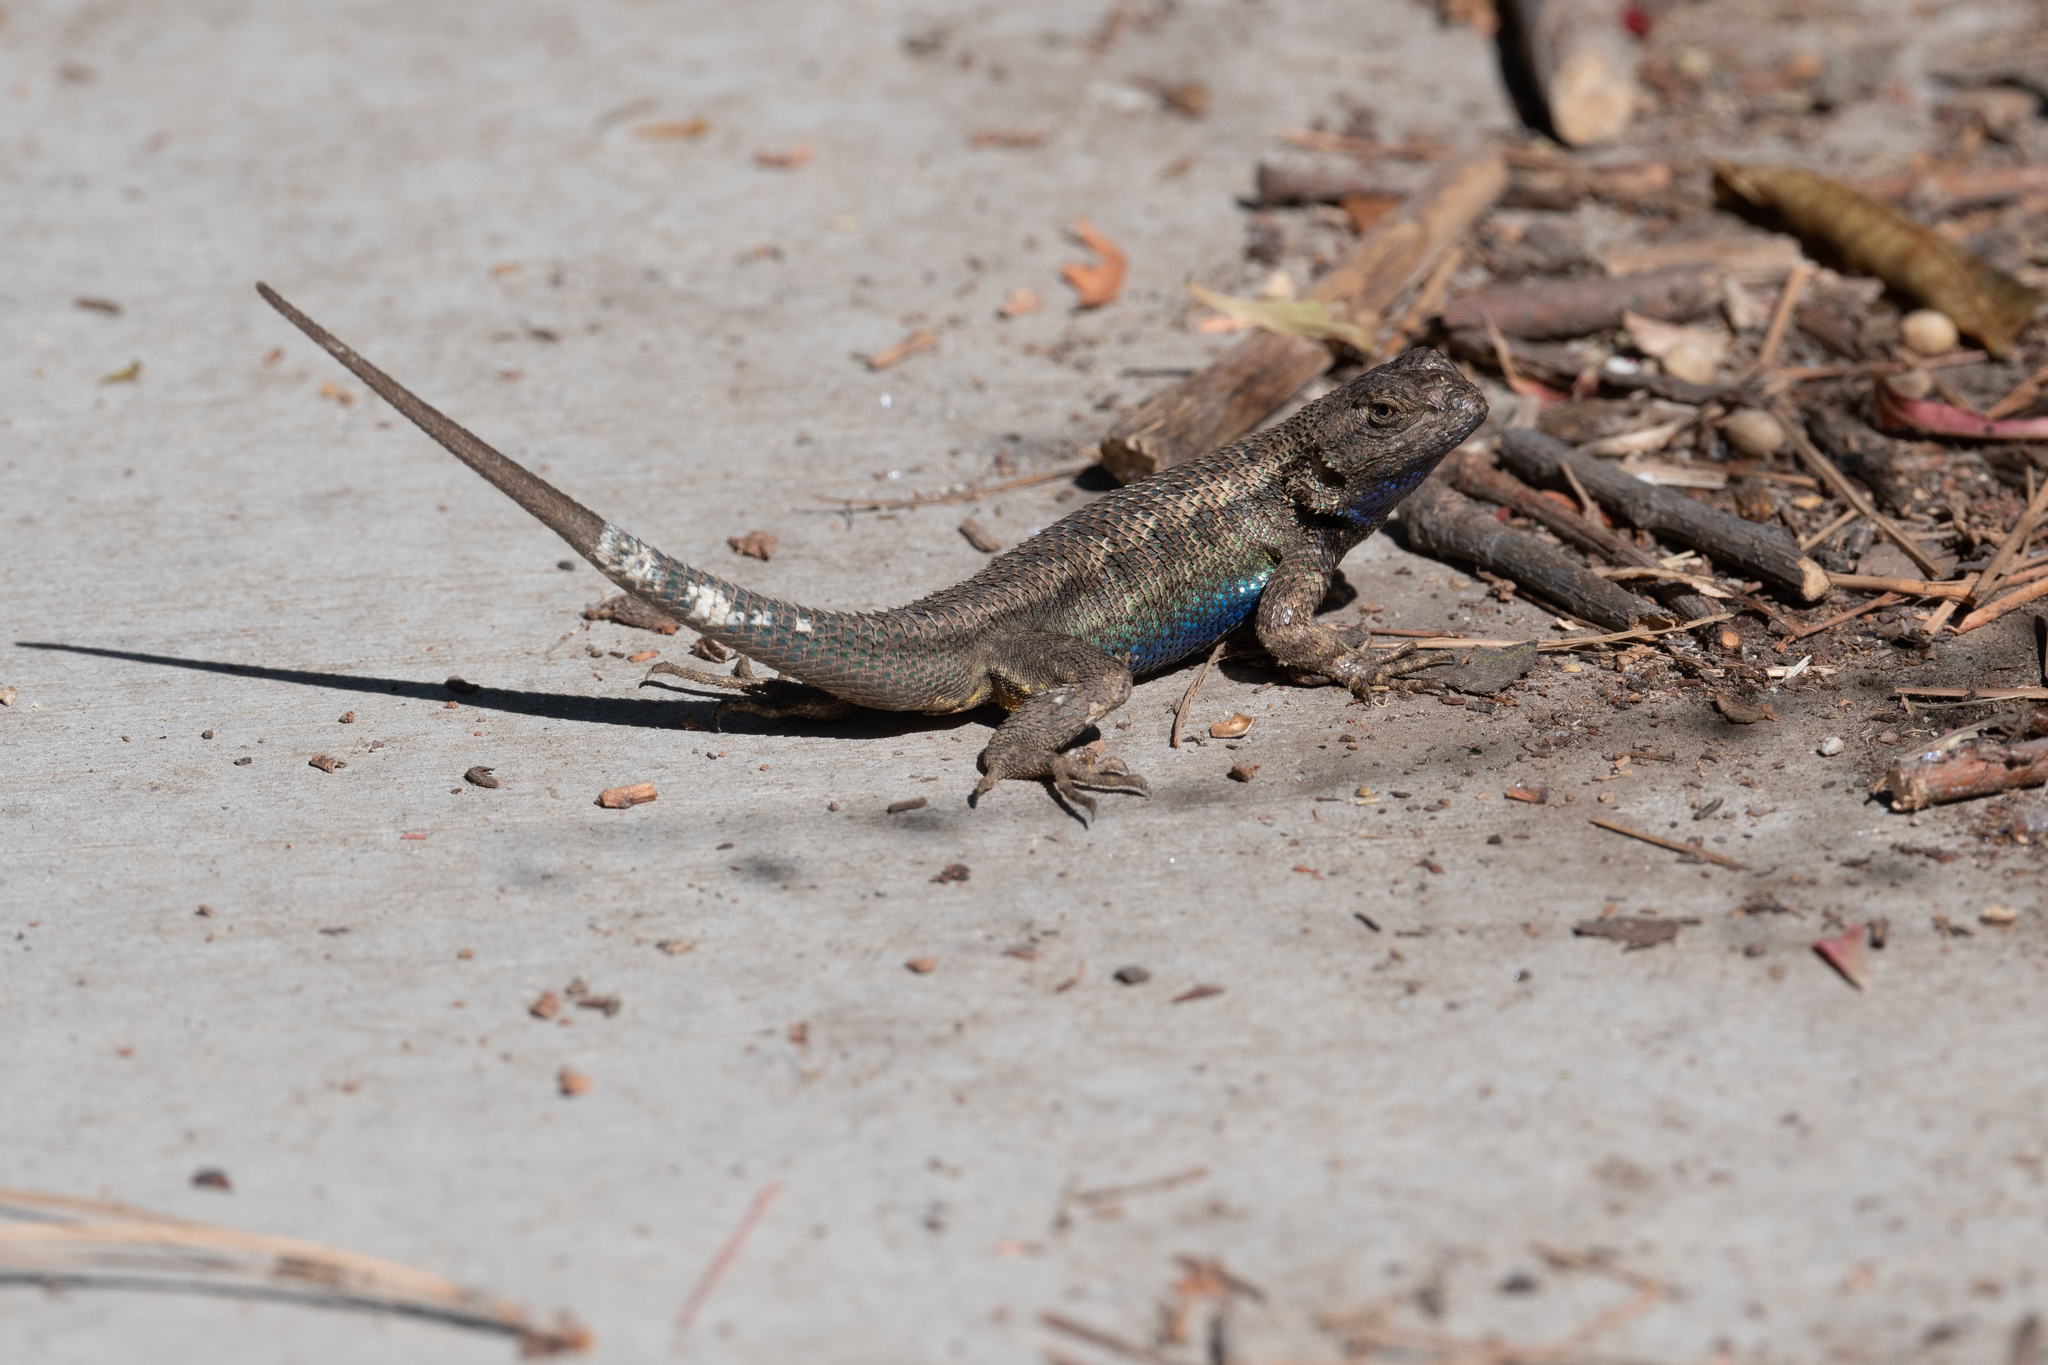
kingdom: Animalia
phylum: Chordata
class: Squamata
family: Phrynosomatidae
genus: Sceloporus
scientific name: Sceloporus occidentalis
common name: Western fence lizard
